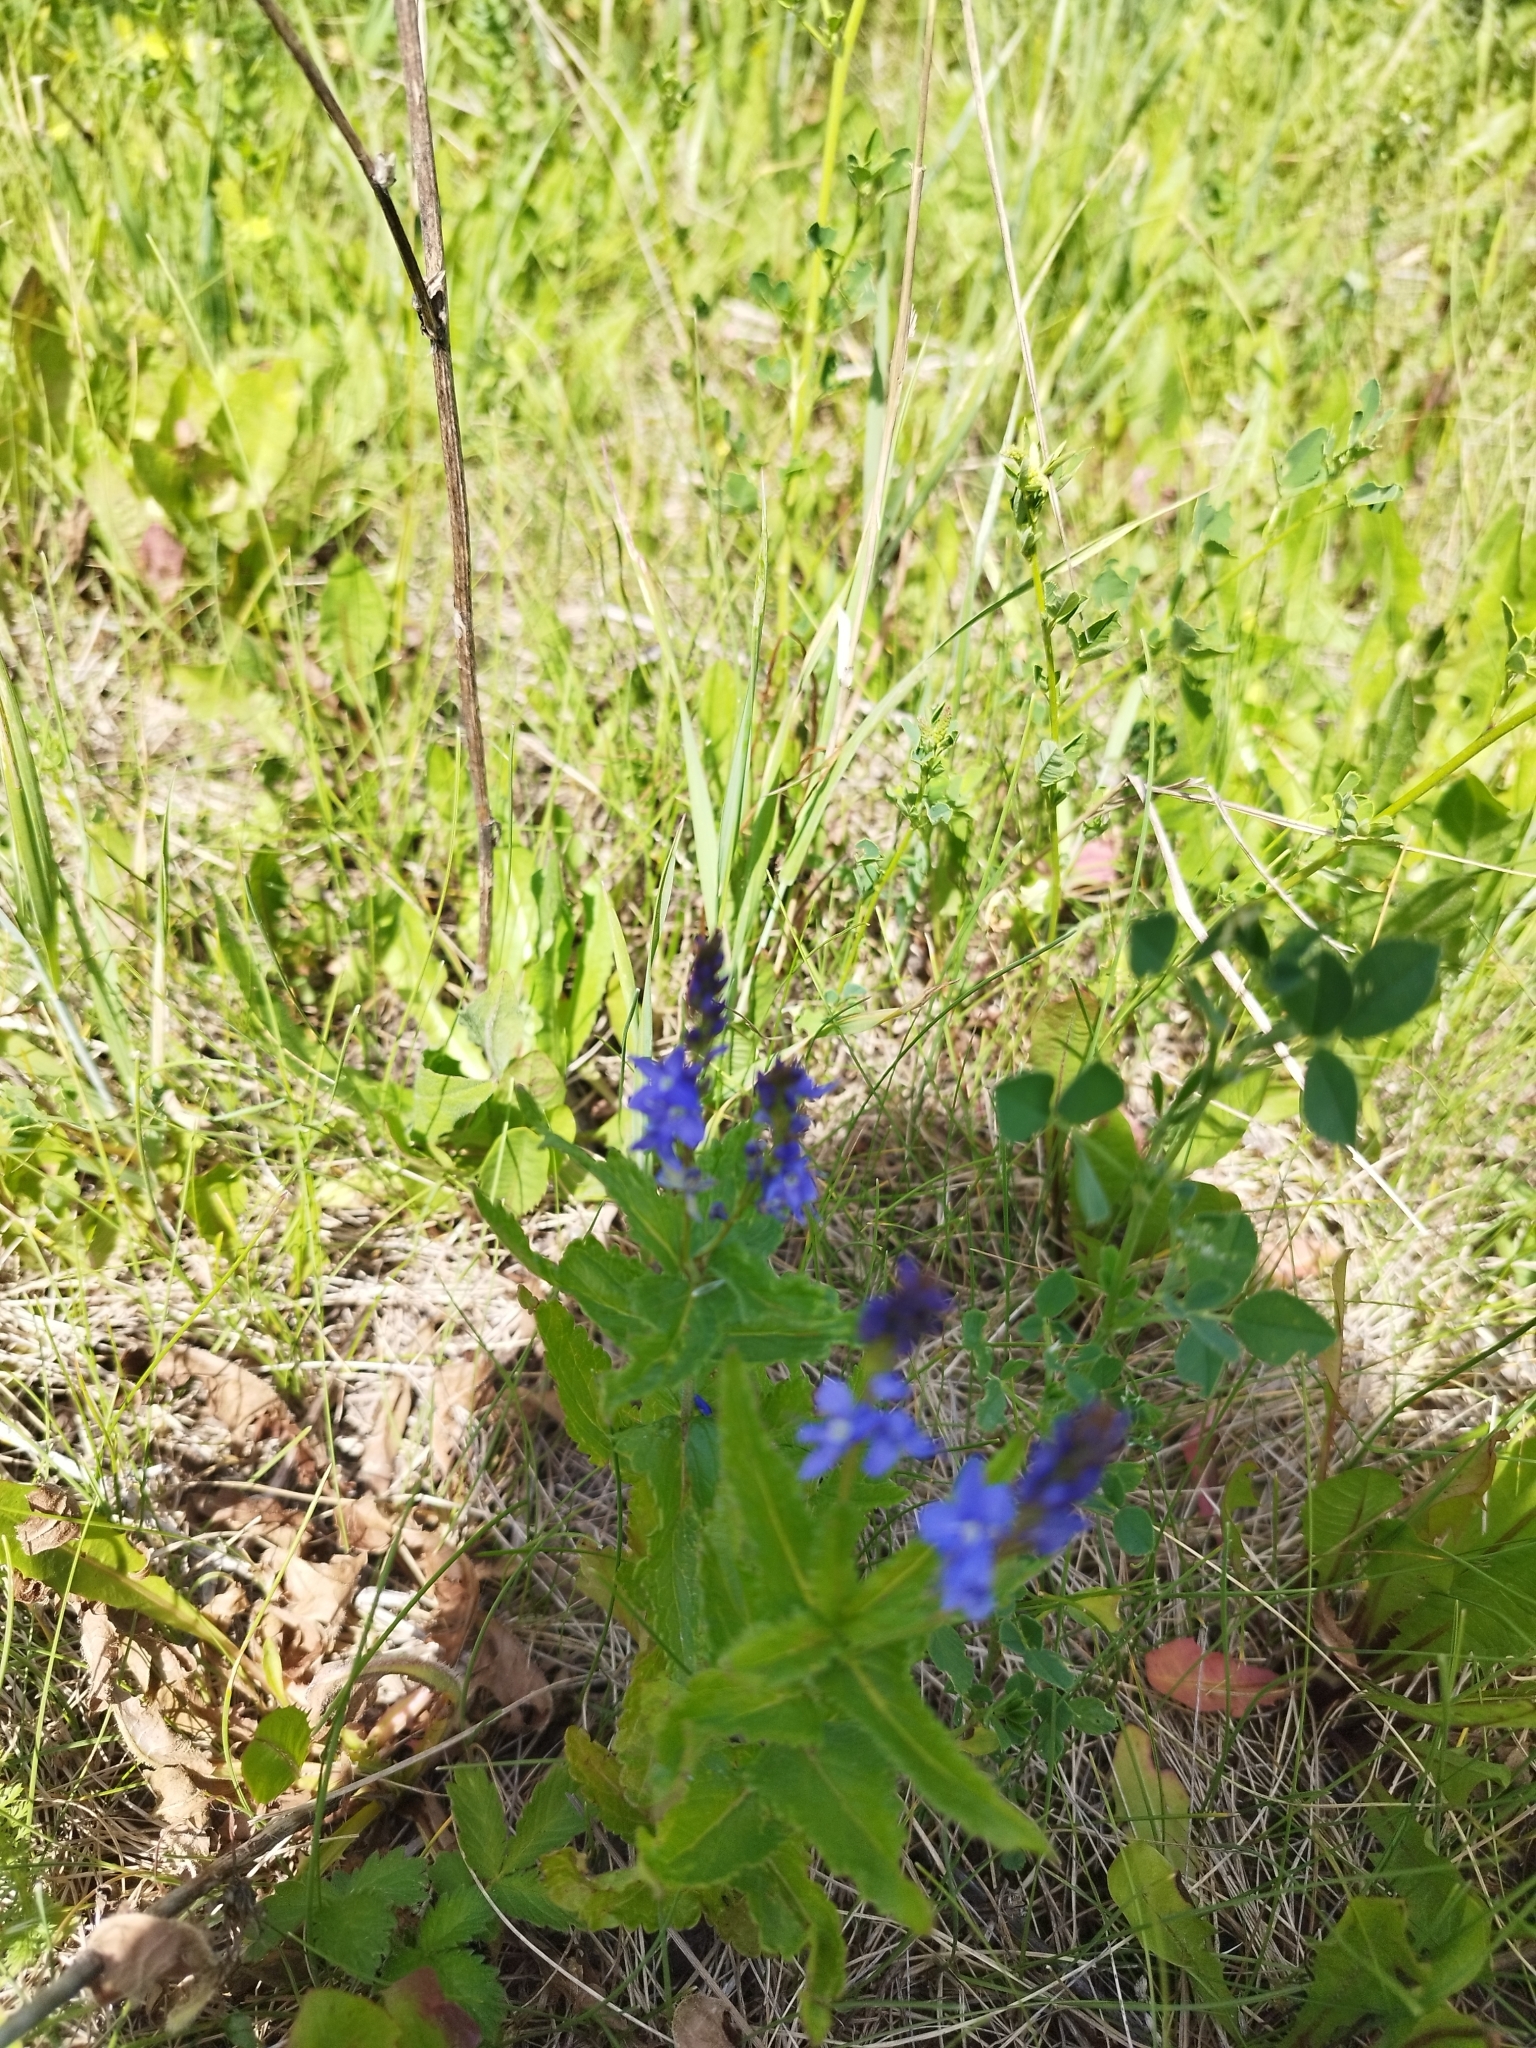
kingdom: Plantae
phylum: Tracheophyta
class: Magnoliopsida
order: Lamiales
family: Plantaginaceae
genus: Veronica
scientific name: Veronica teucrium
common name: Large speedwell
